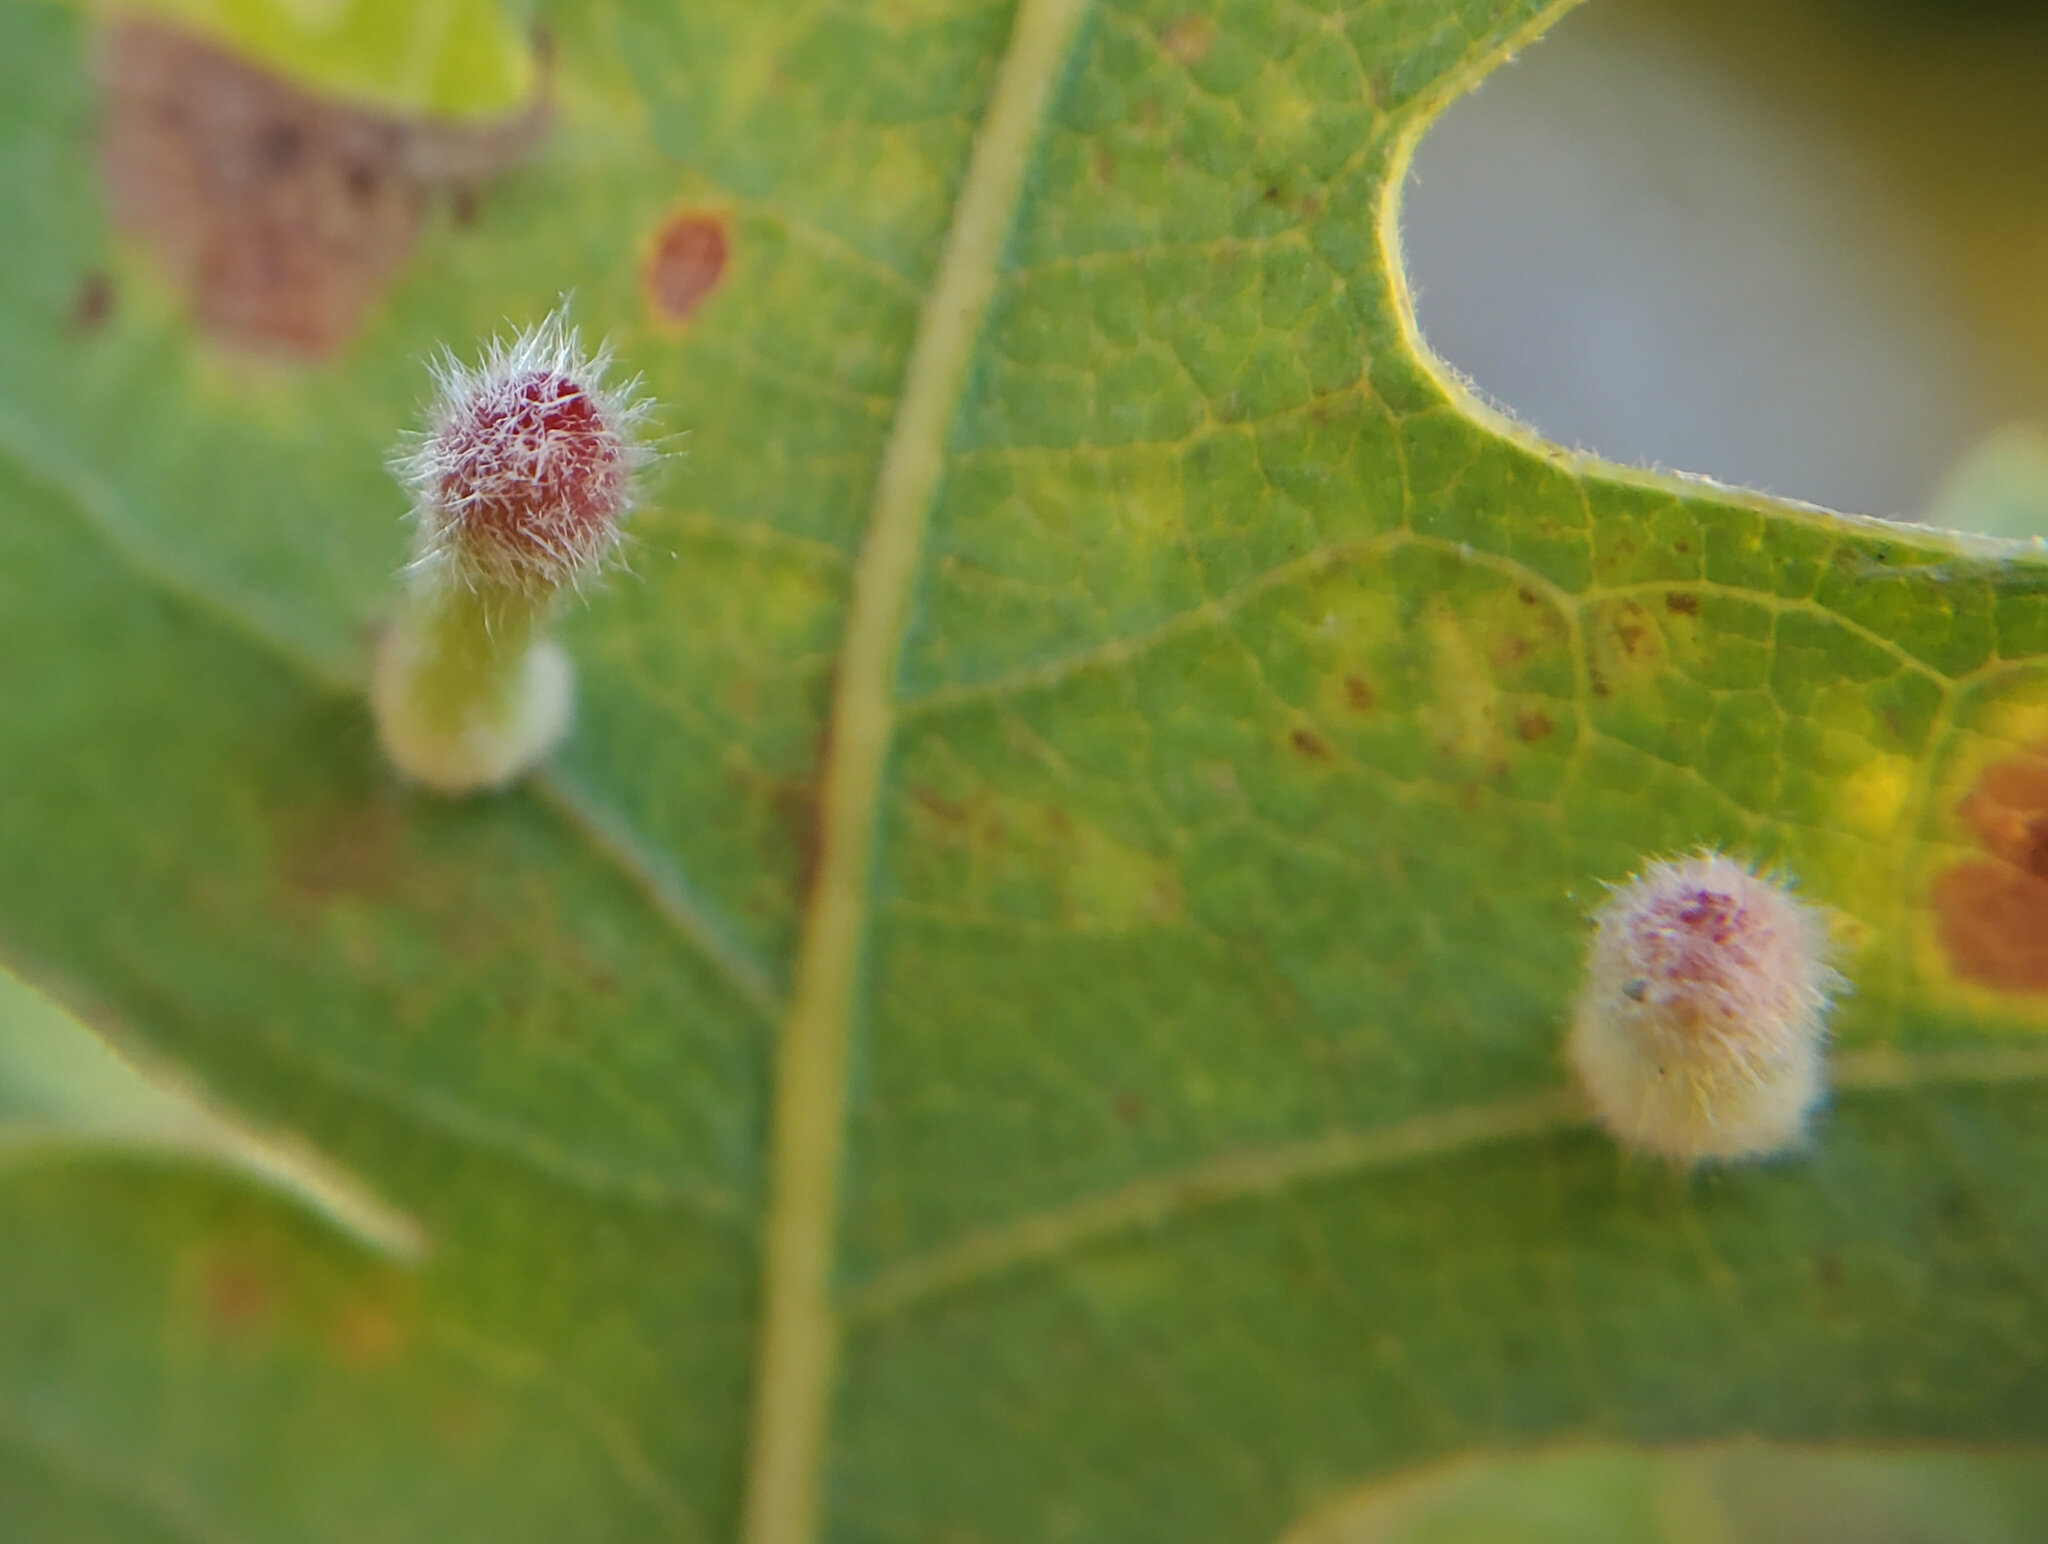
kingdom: Animalia
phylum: Arthropoda
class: Insecta
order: Hymenoptera
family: Cynipidae
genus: Atrusca
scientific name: Atrusca
